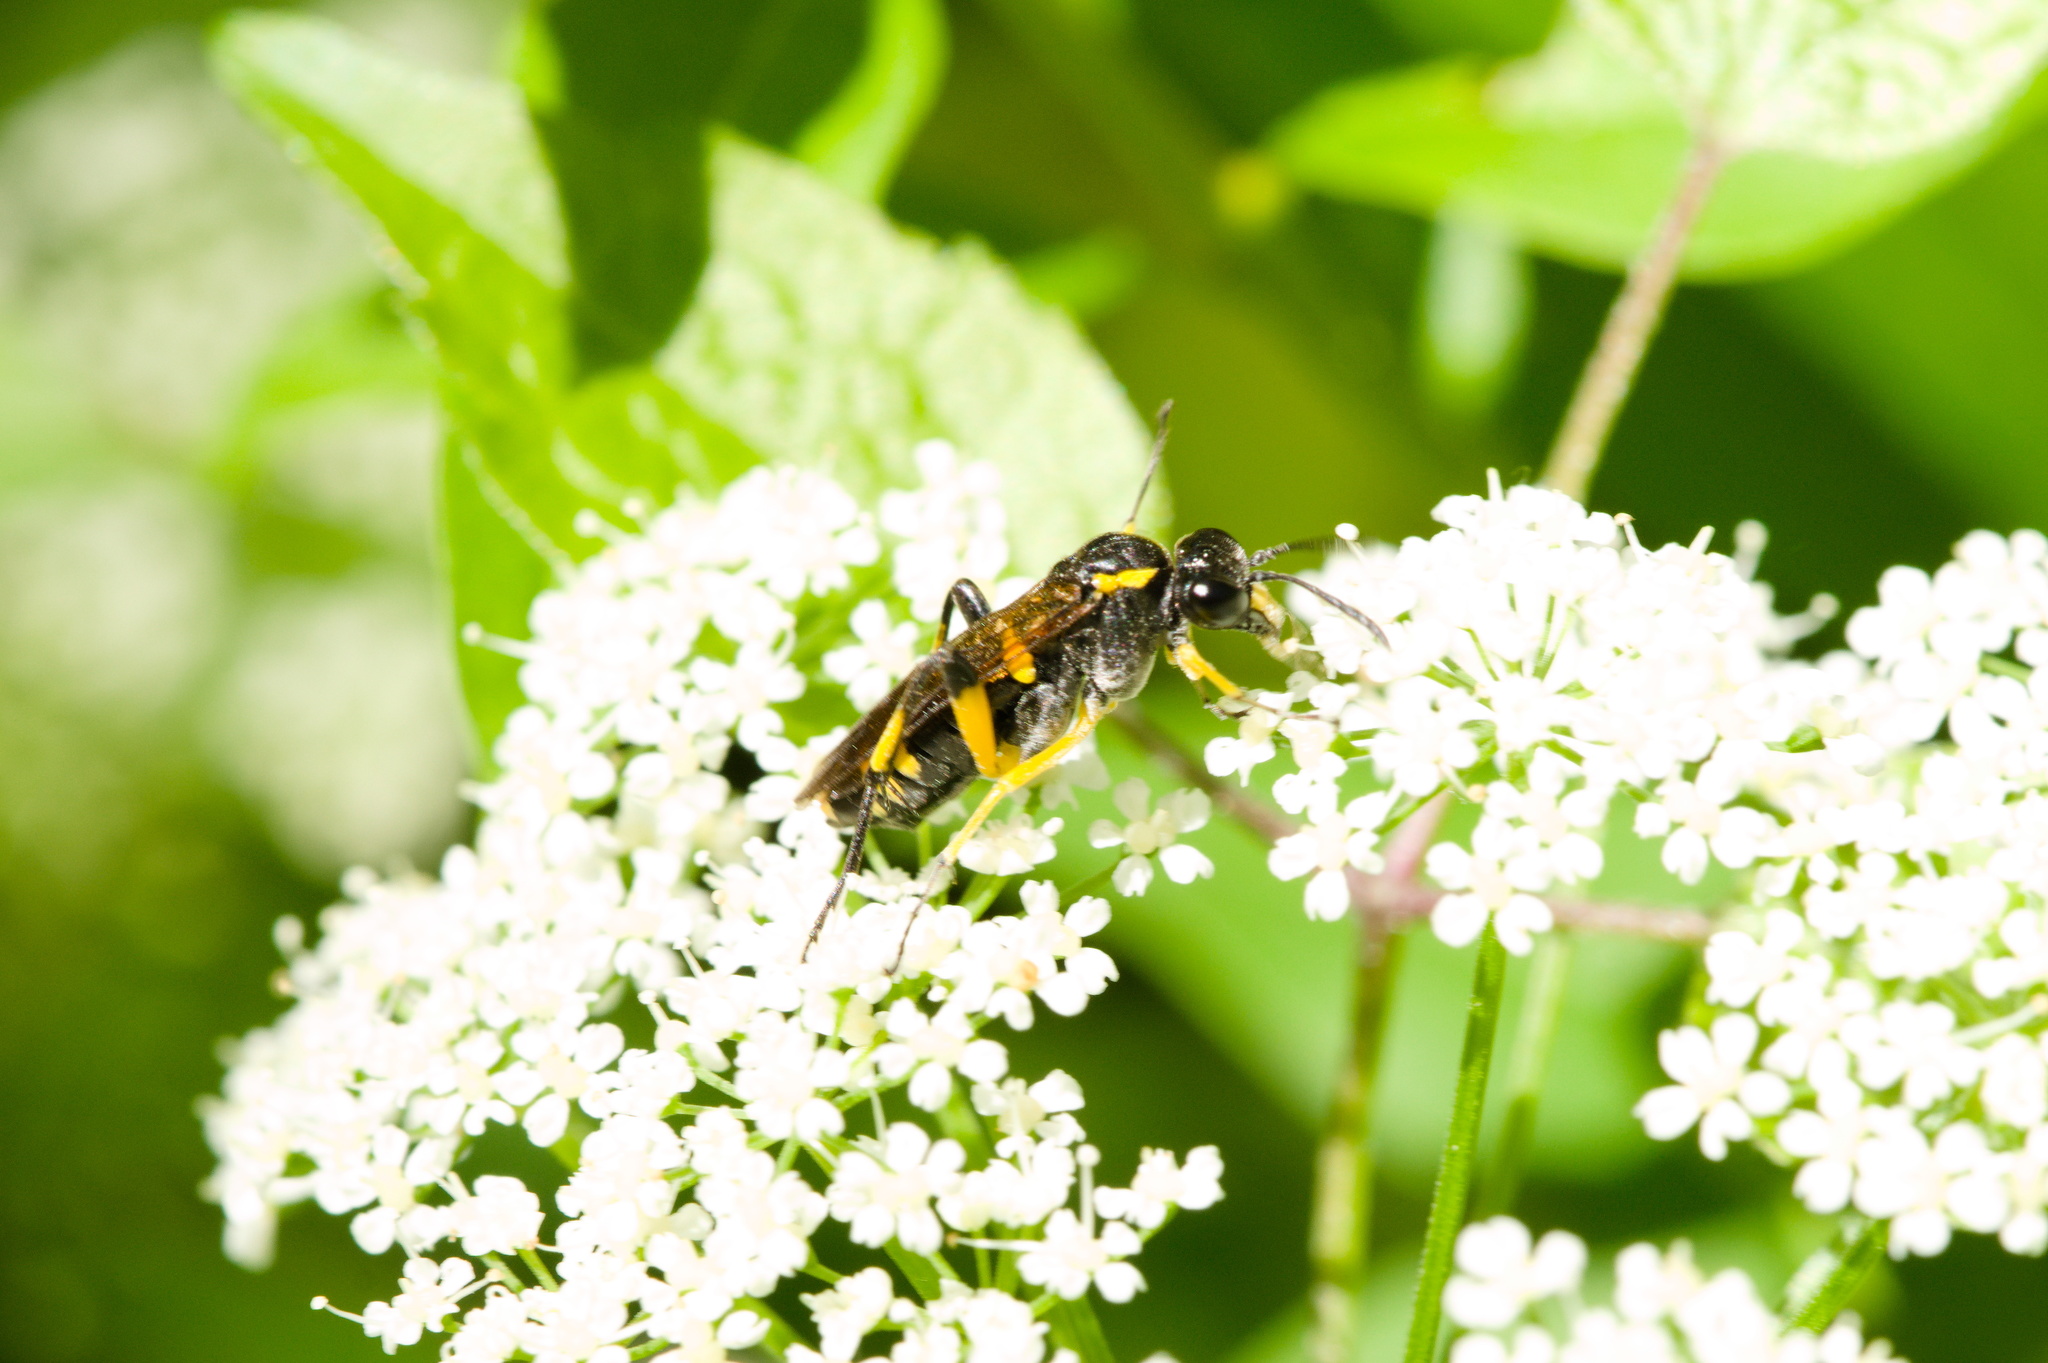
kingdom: Animalia
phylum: Arthropoda
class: Insecta
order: Hymenoptera
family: Tenthredinidae
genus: Macrophya
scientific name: Macrophya montana
